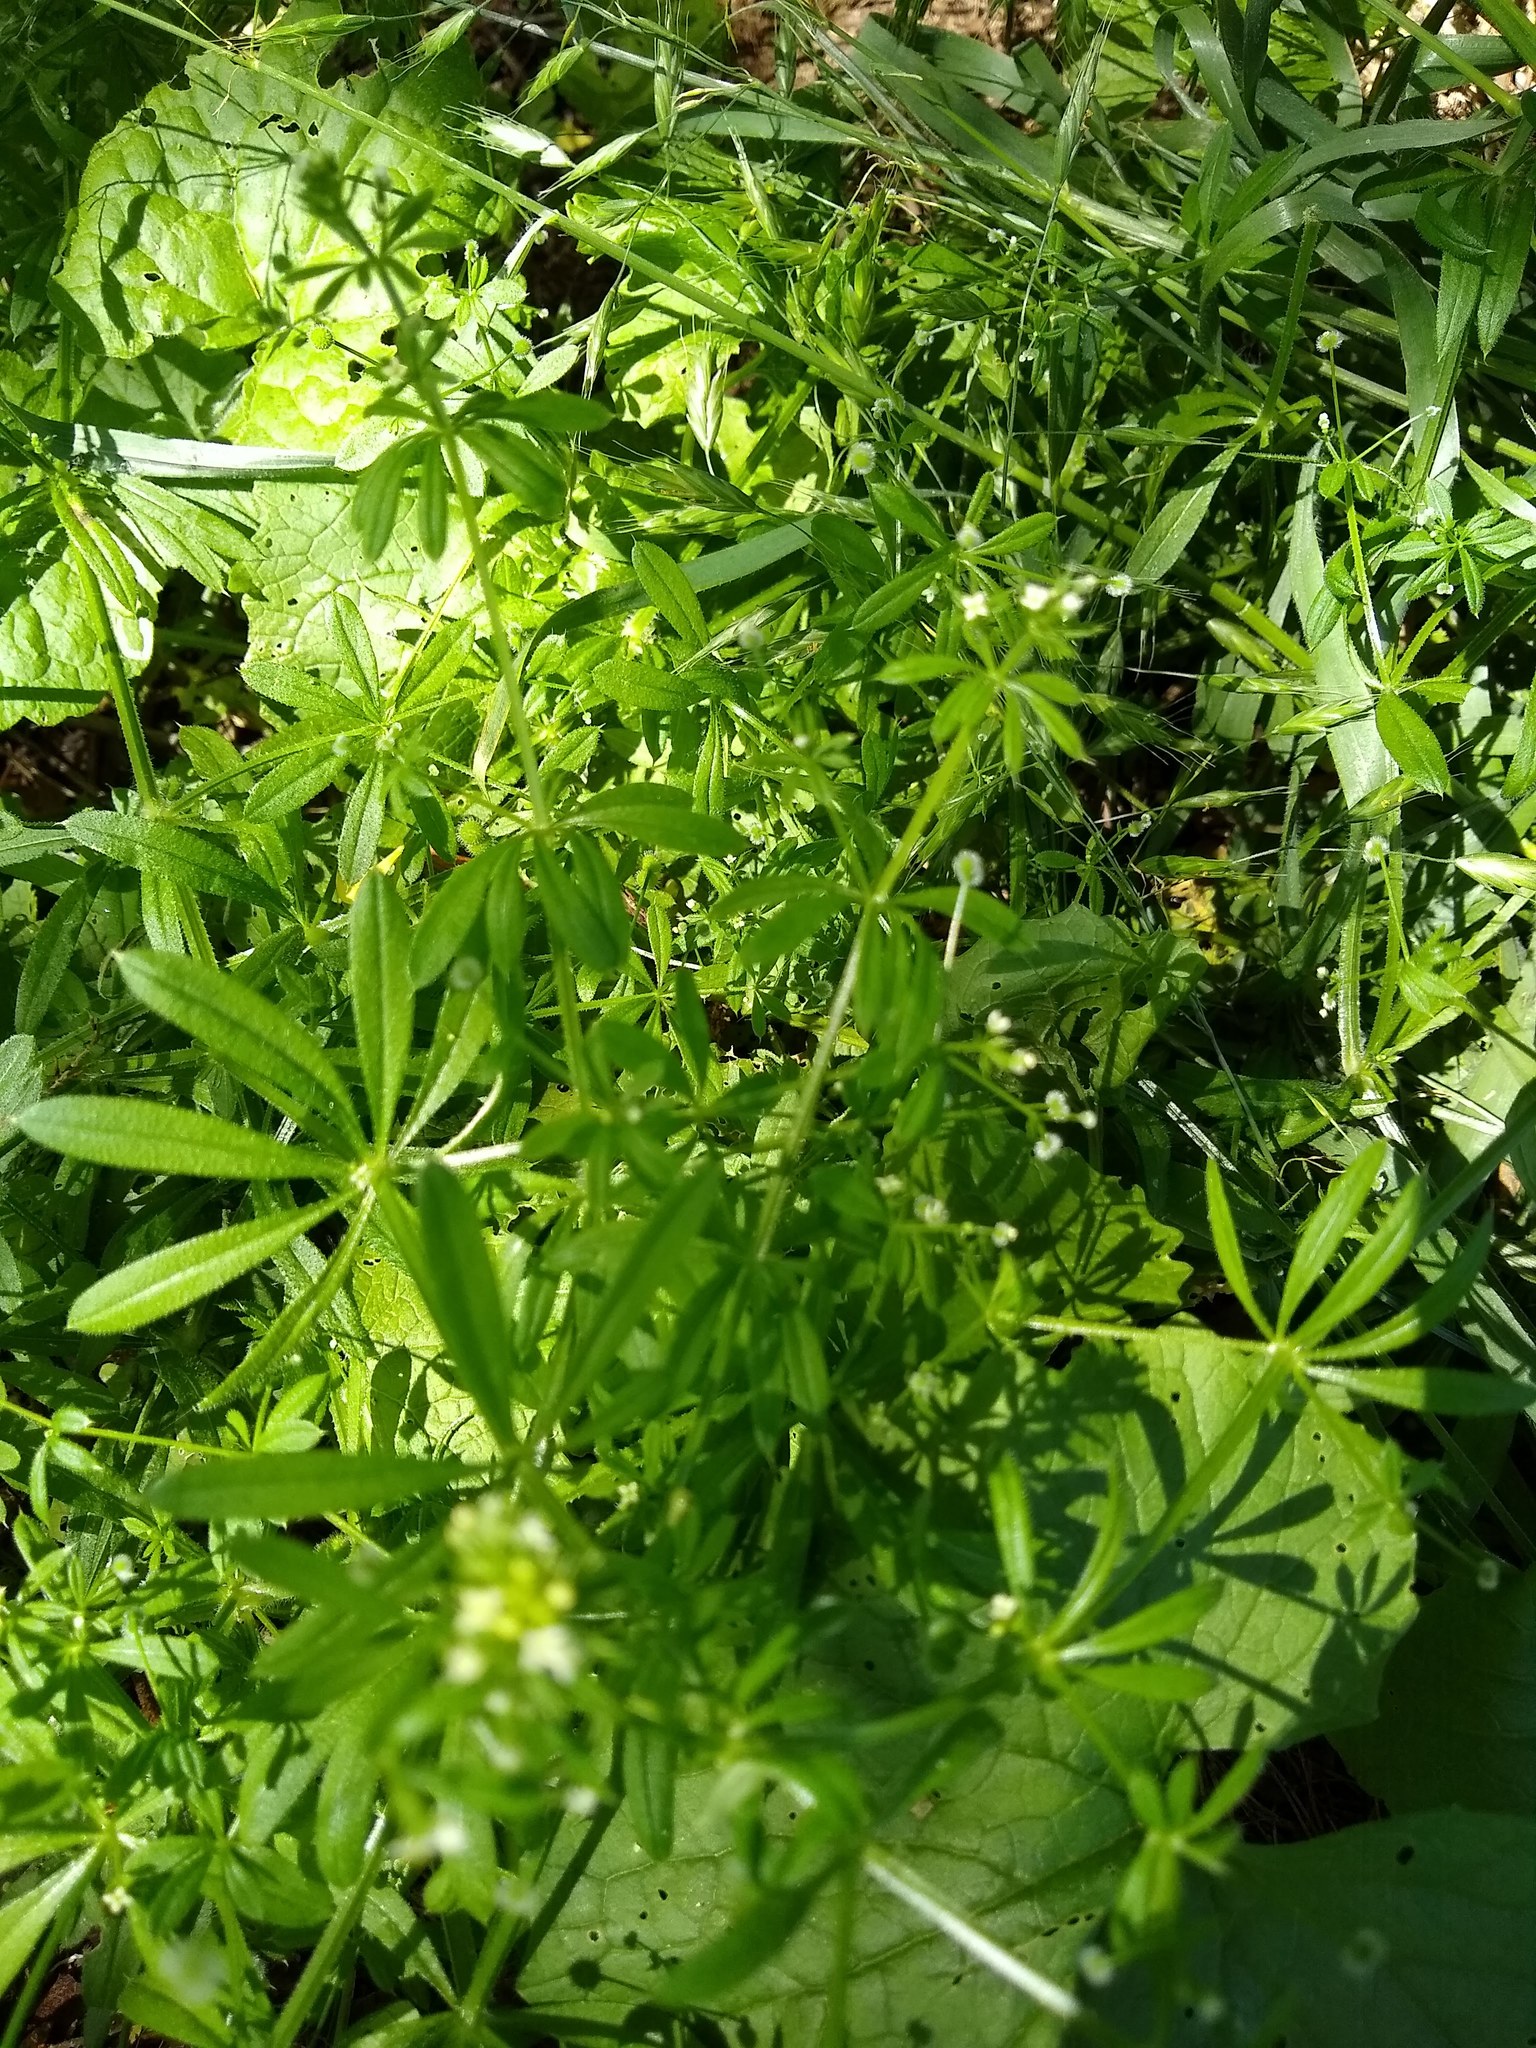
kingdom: Plantae
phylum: Tracheophyta
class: Magnoliopsida
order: Gentianales
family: Rubiaceae
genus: Galium
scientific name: Galium aparine
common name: Cleavers
